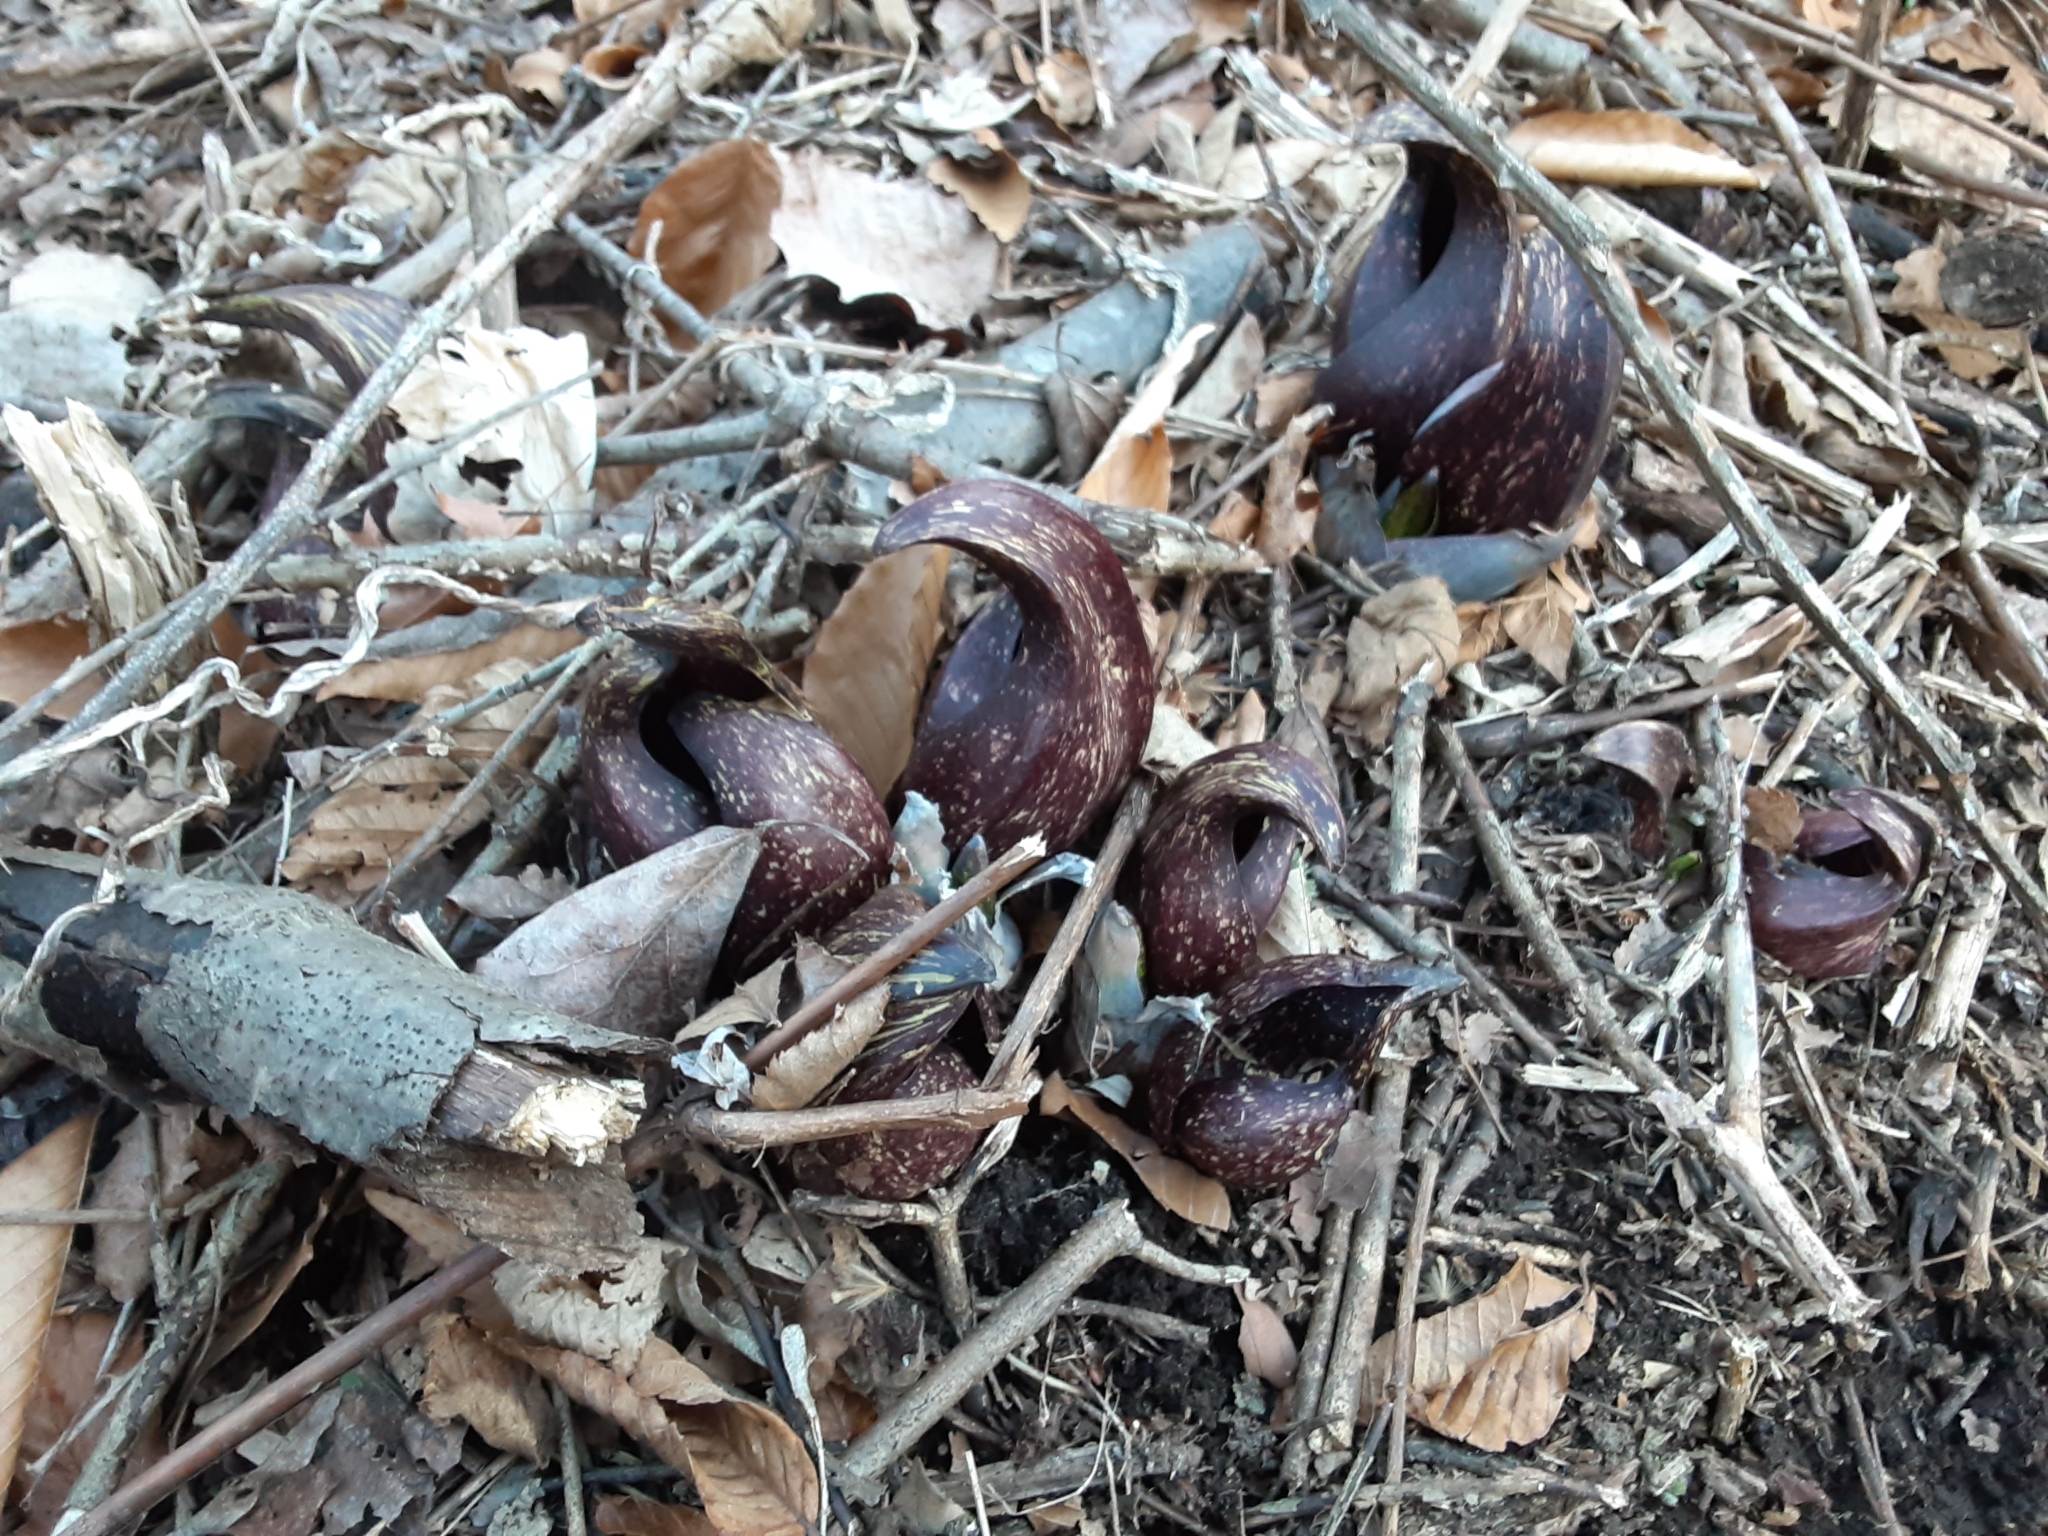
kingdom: Plantae
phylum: Tracheophyta
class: Liliopsida
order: Alismatales
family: Araceae
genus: Symplocarpus
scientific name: Symplocarpus foetidus
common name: Eastern skunk cabbage
